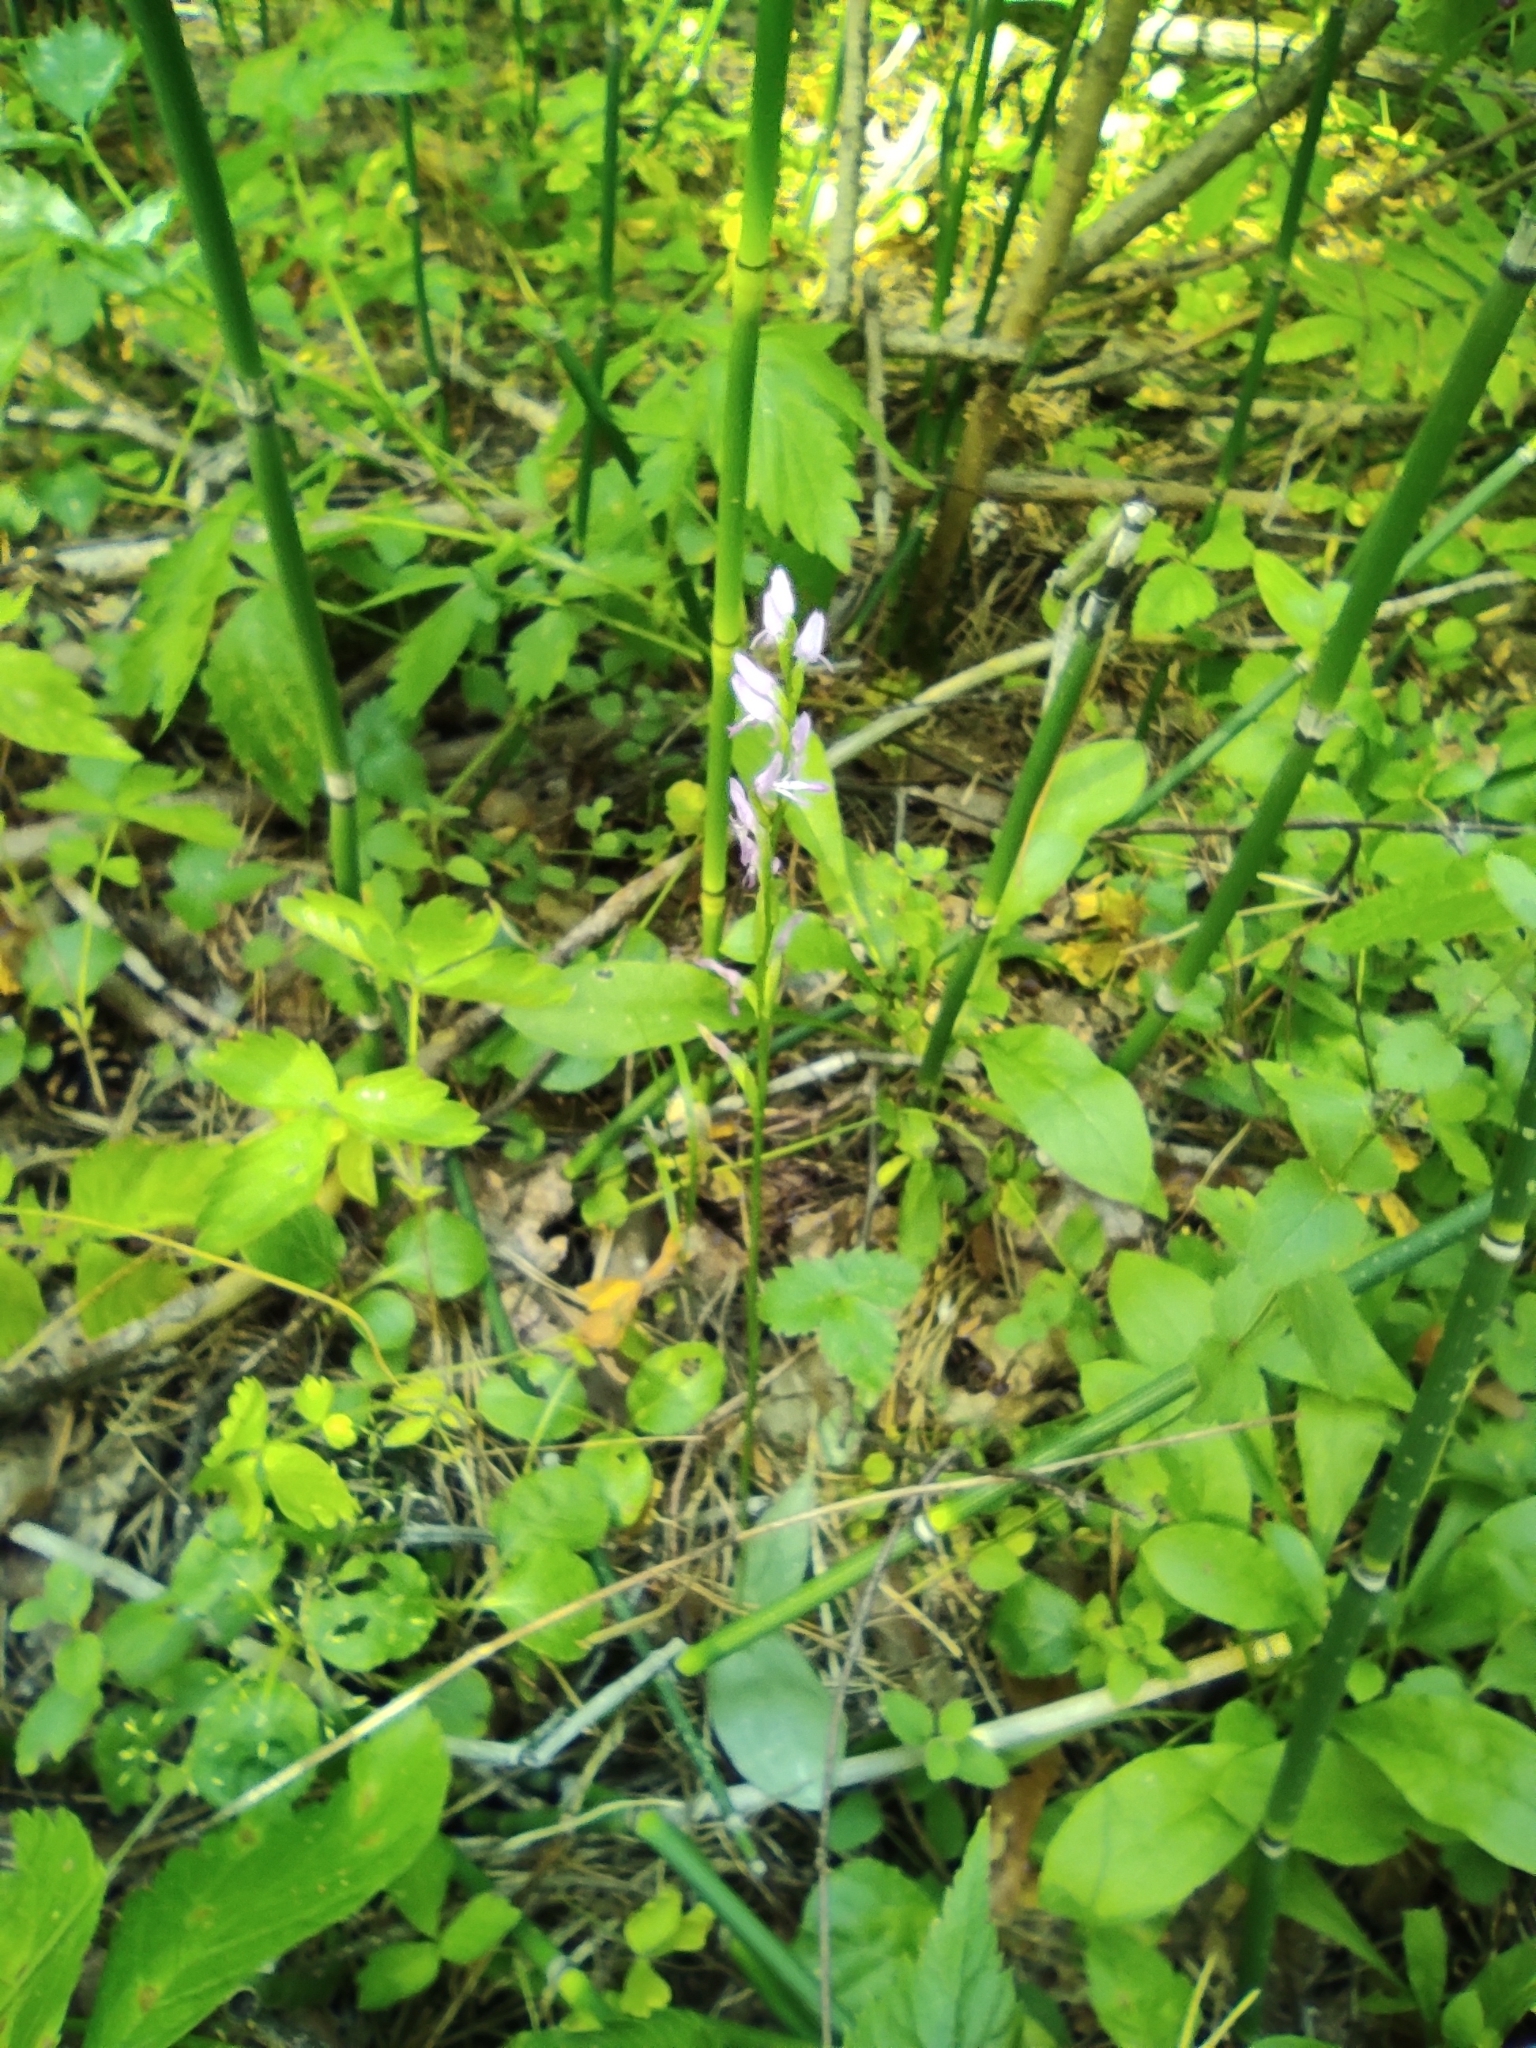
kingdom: Plantae
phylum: Tracheophyta
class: Liliopsida
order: Asparagales
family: Orchidaceae
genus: Hemipilia
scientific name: Hemipilia cucullata
